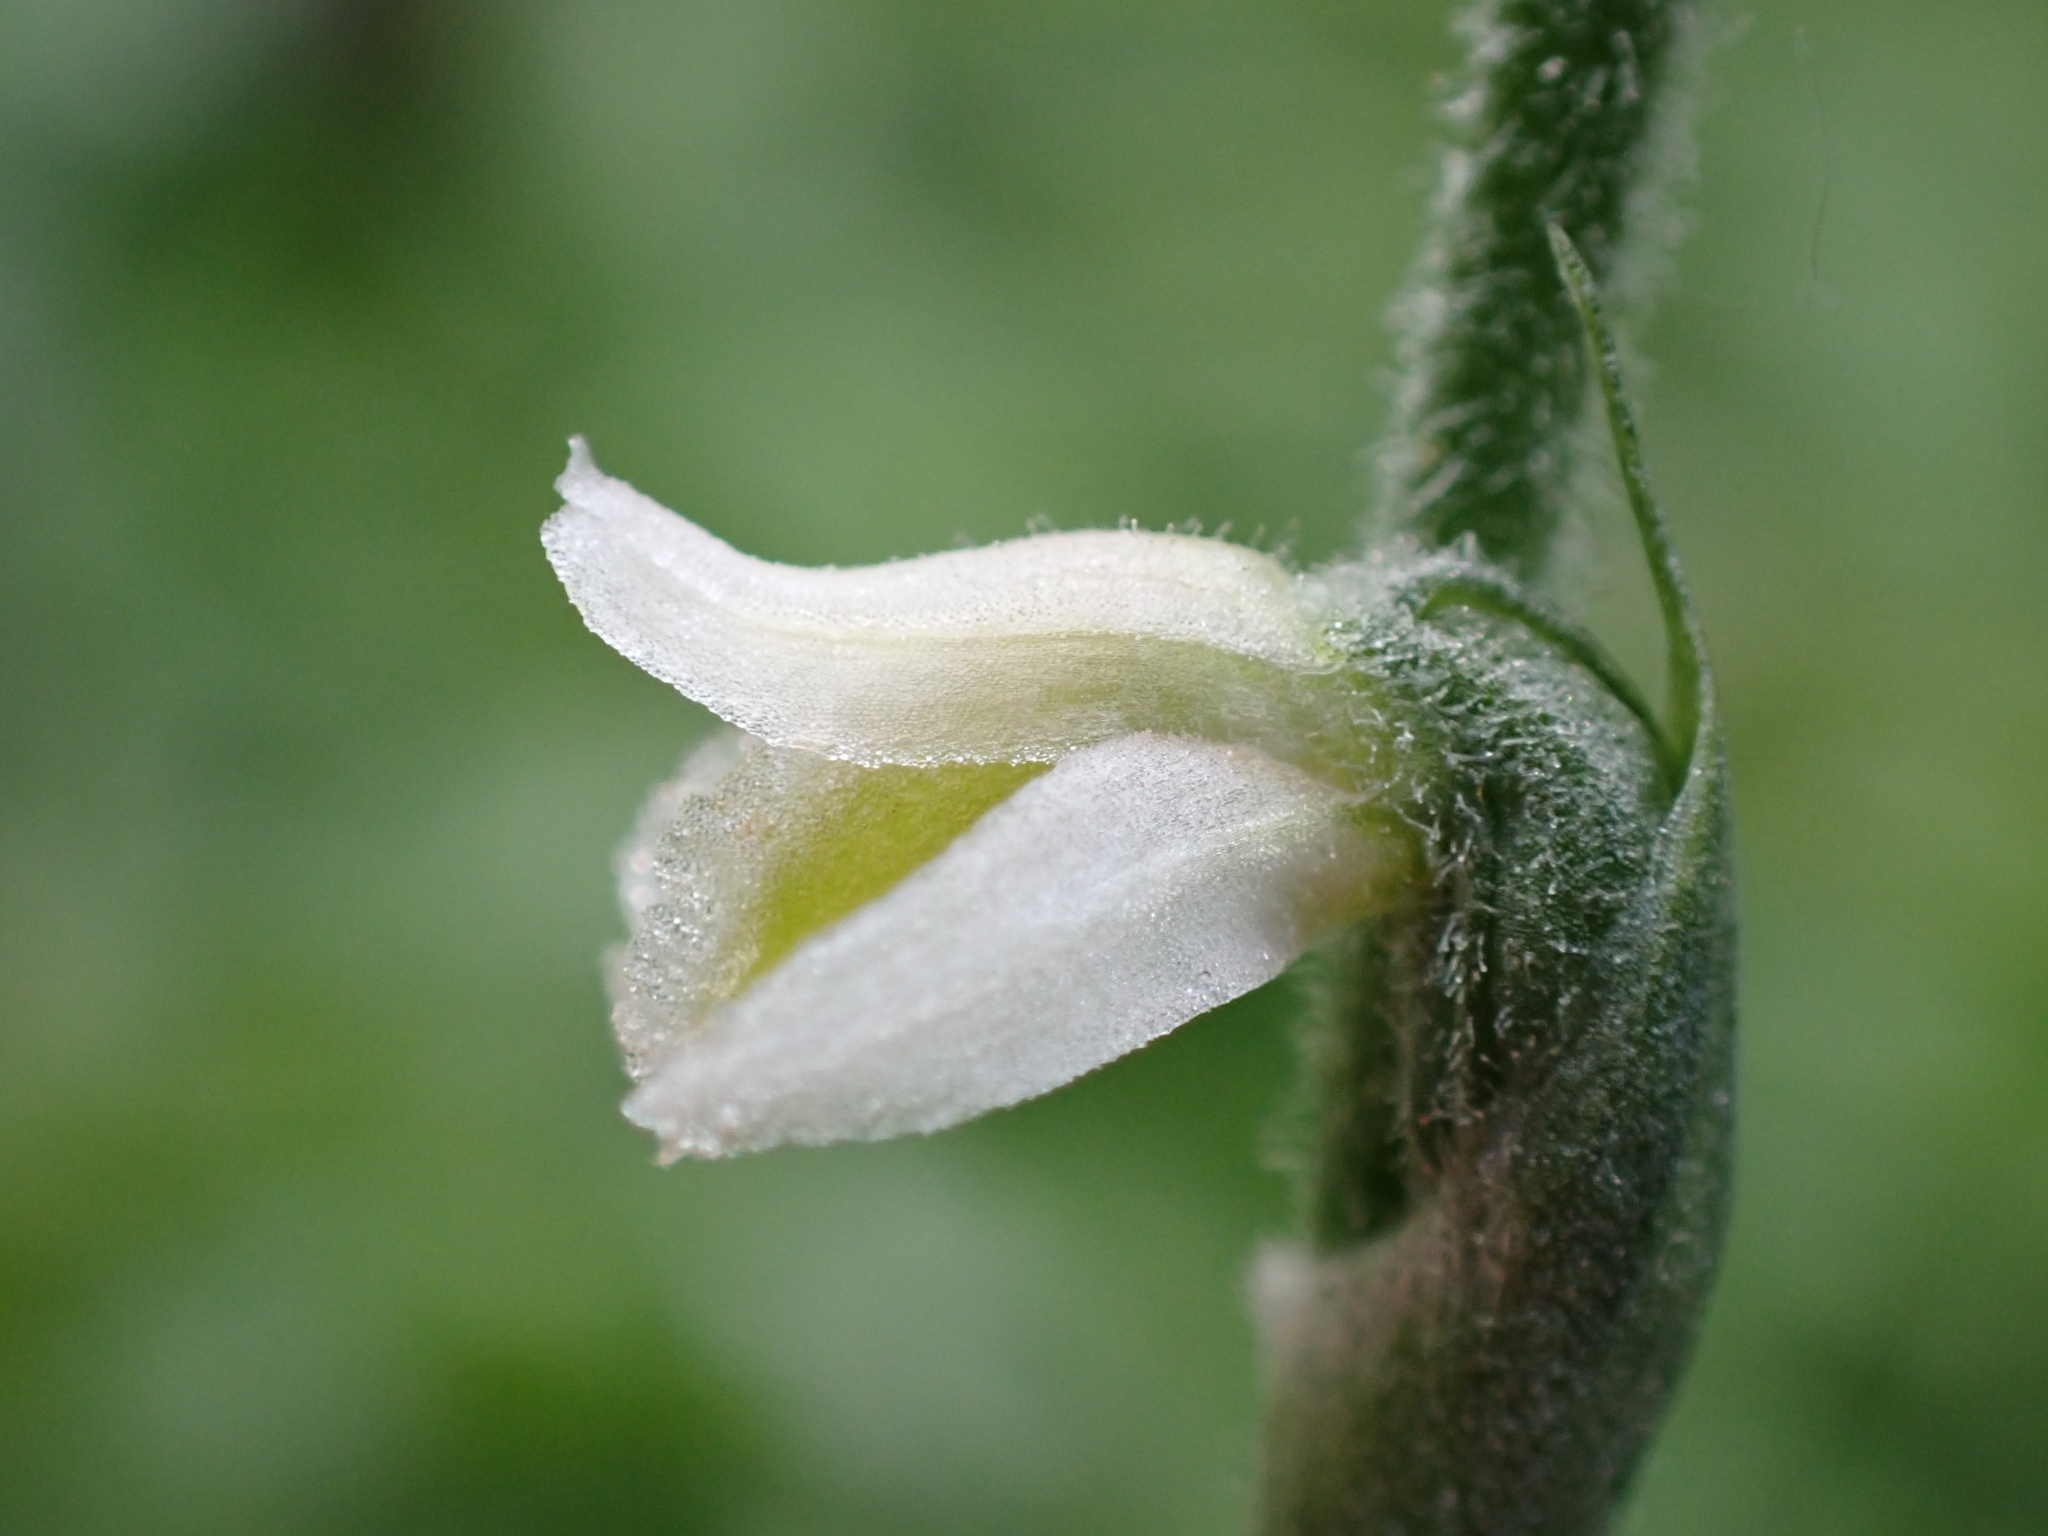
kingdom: Plantae
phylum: Tracheophyta
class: Liliopsida
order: Asparagales
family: Orchidaceae
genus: Spiranthes
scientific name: Spiranthes spiralis
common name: Autumn lady's-tresses
